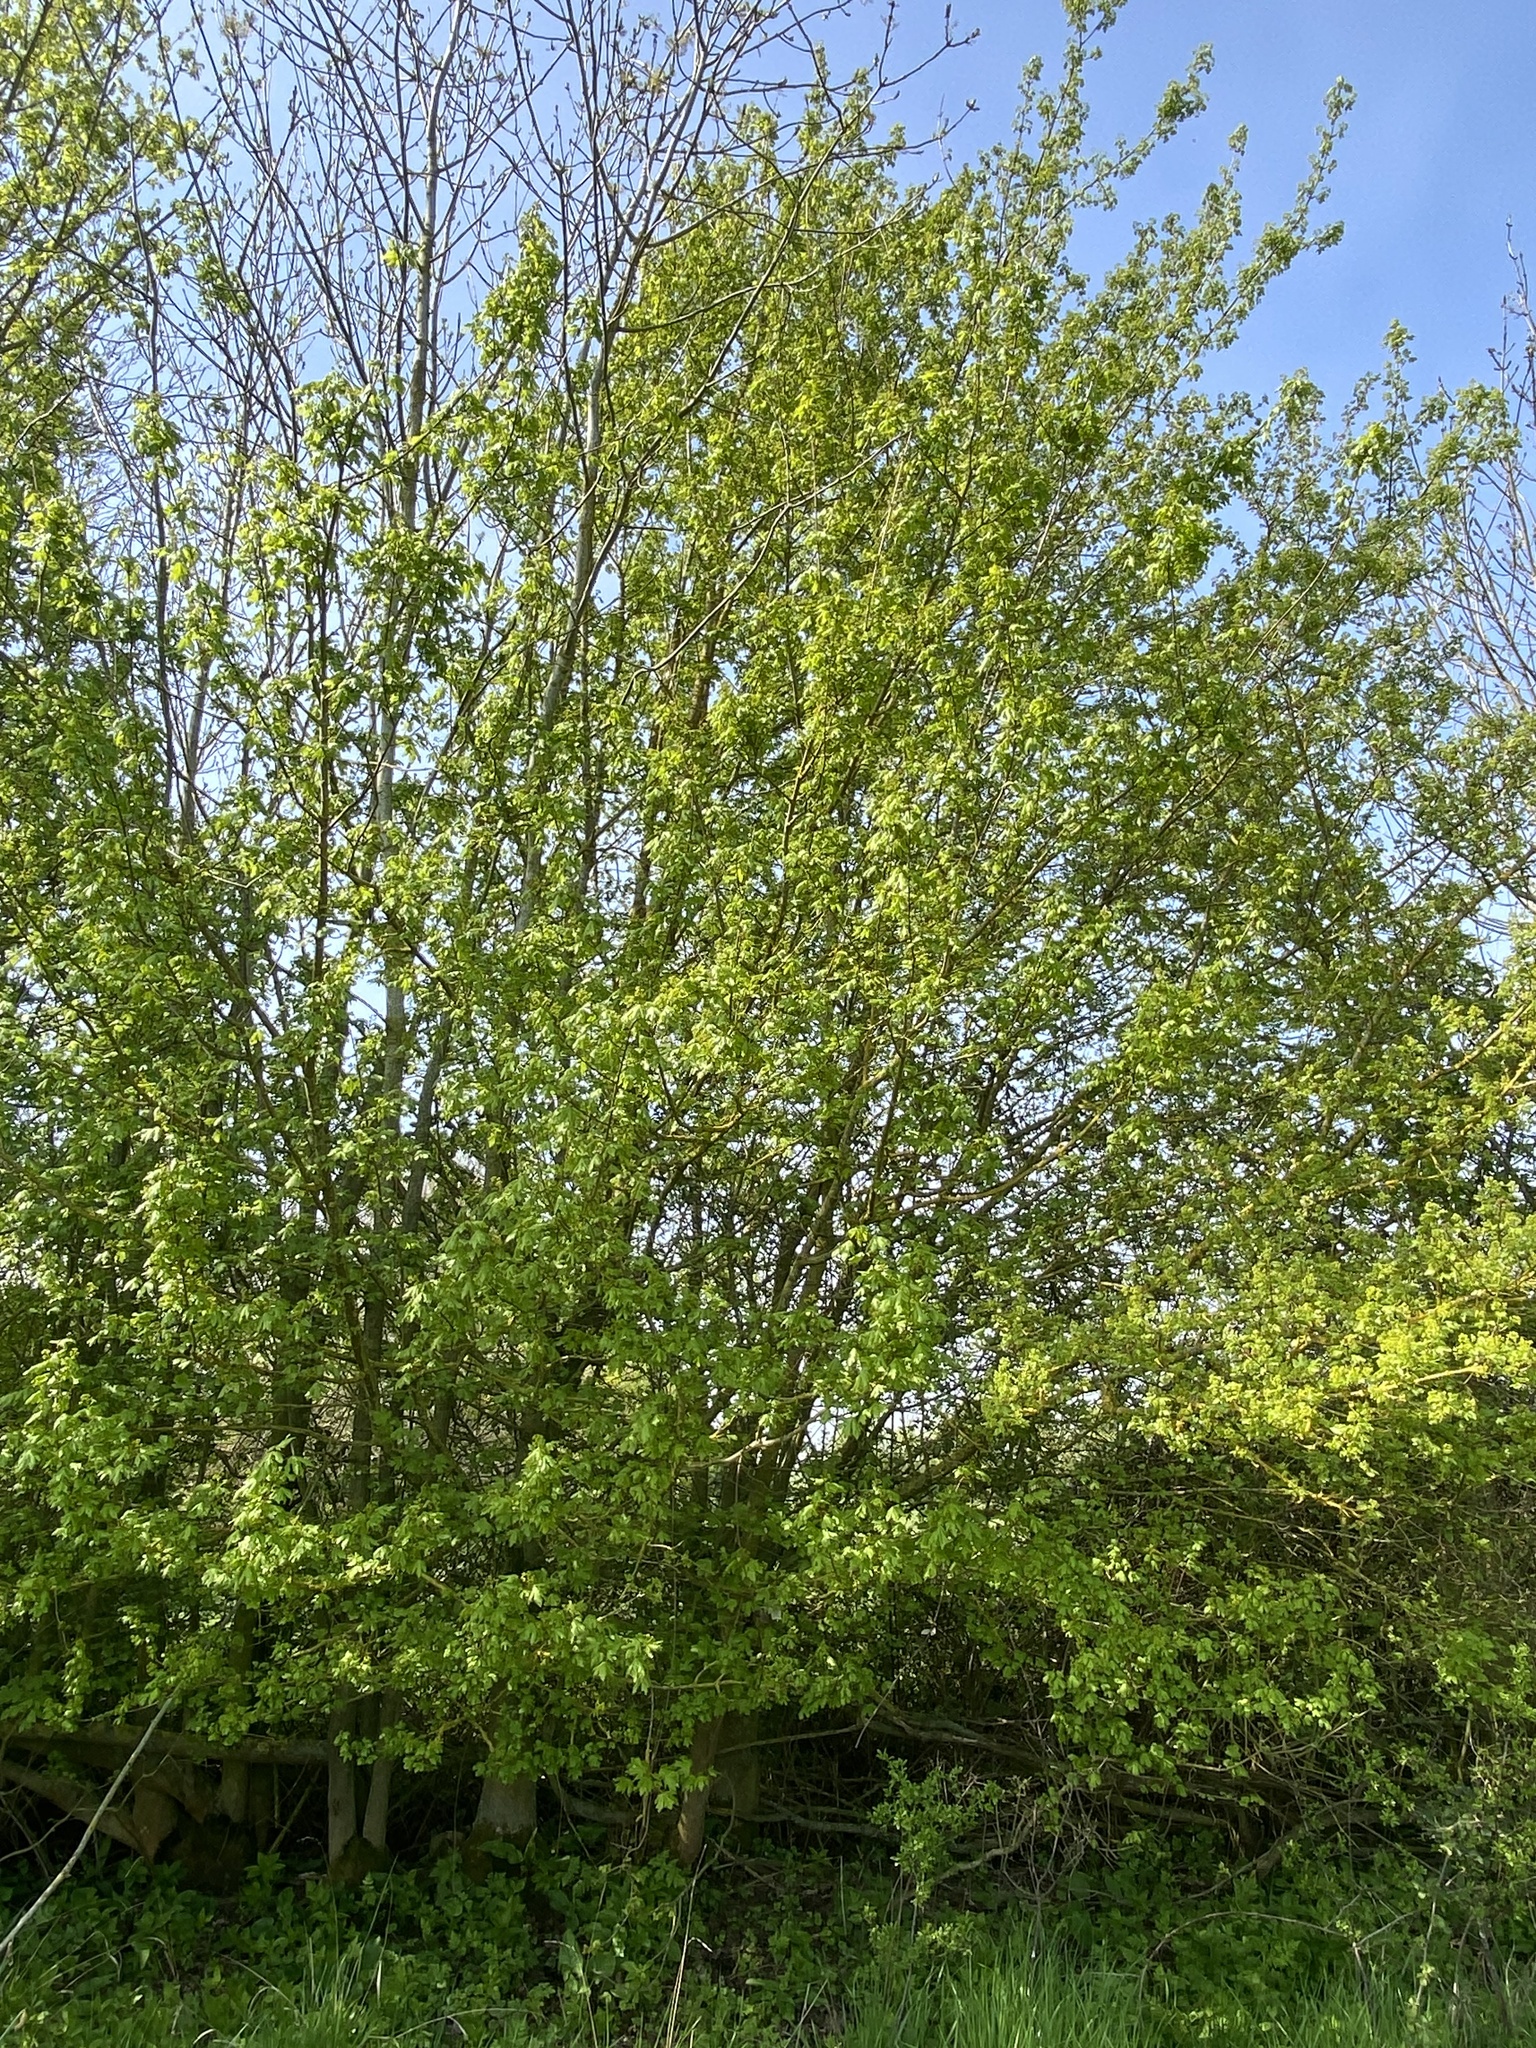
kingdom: Plantae
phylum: Tracheophyta
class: Magnoliopsida
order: Sapindales
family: Sapindaceae
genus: Acer
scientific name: Acer campestre
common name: Field maple
